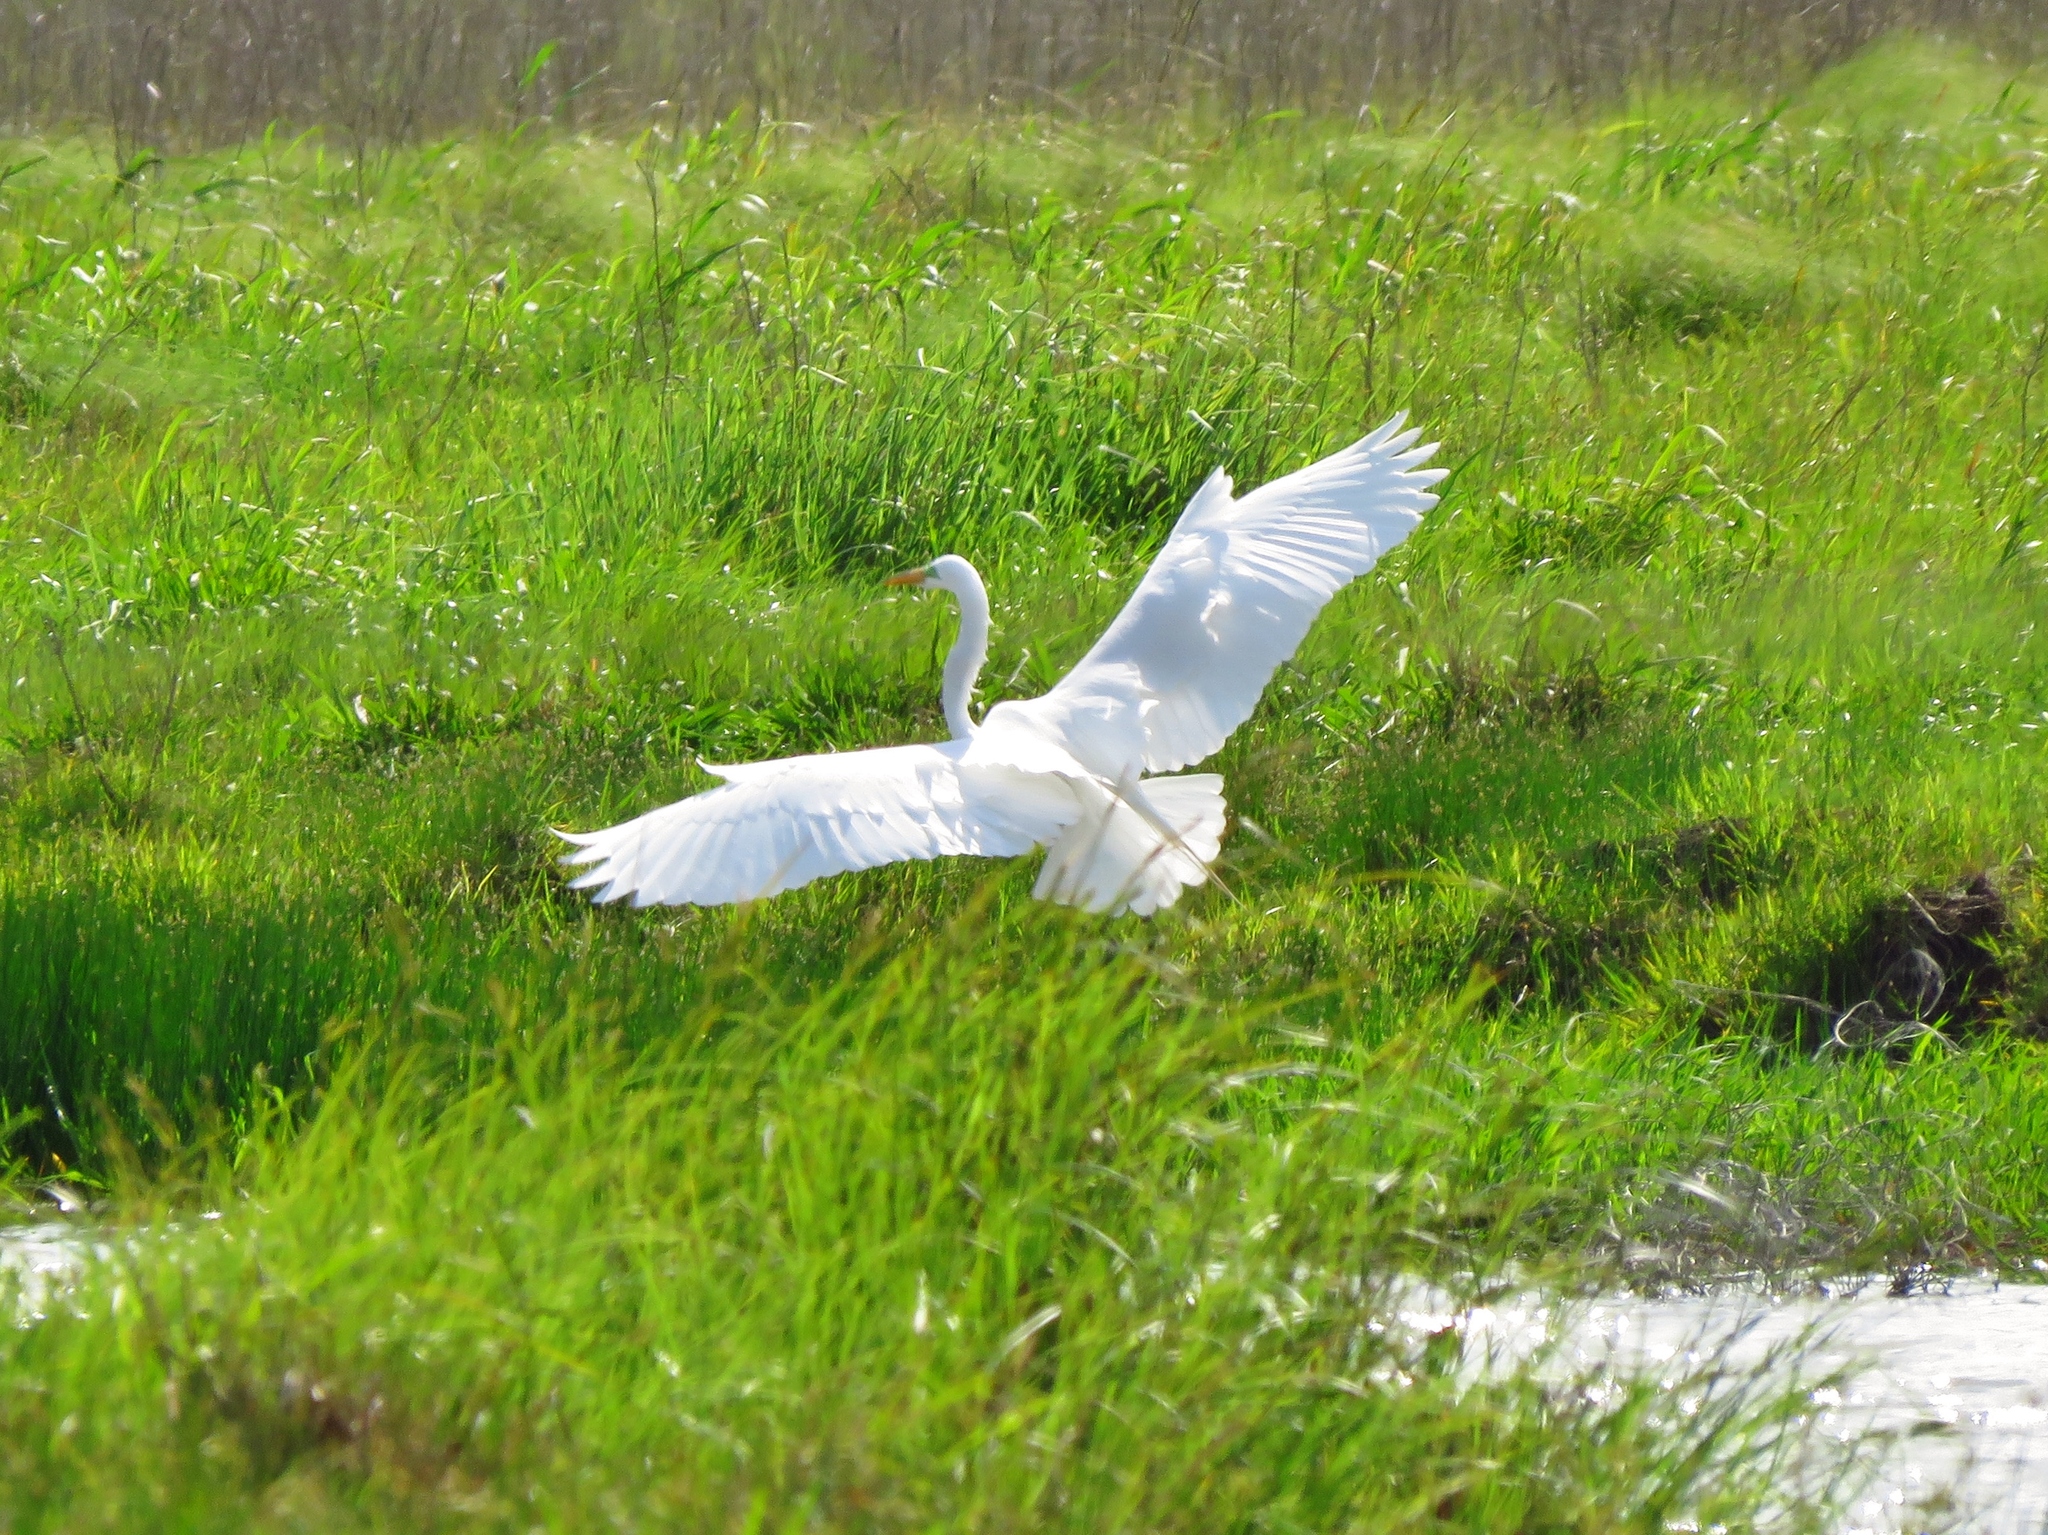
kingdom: Animalia
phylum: Chordata
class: Aves
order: Pelecaniformes
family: Ardeidae
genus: Ardea
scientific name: Ardea alba
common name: Great egret
